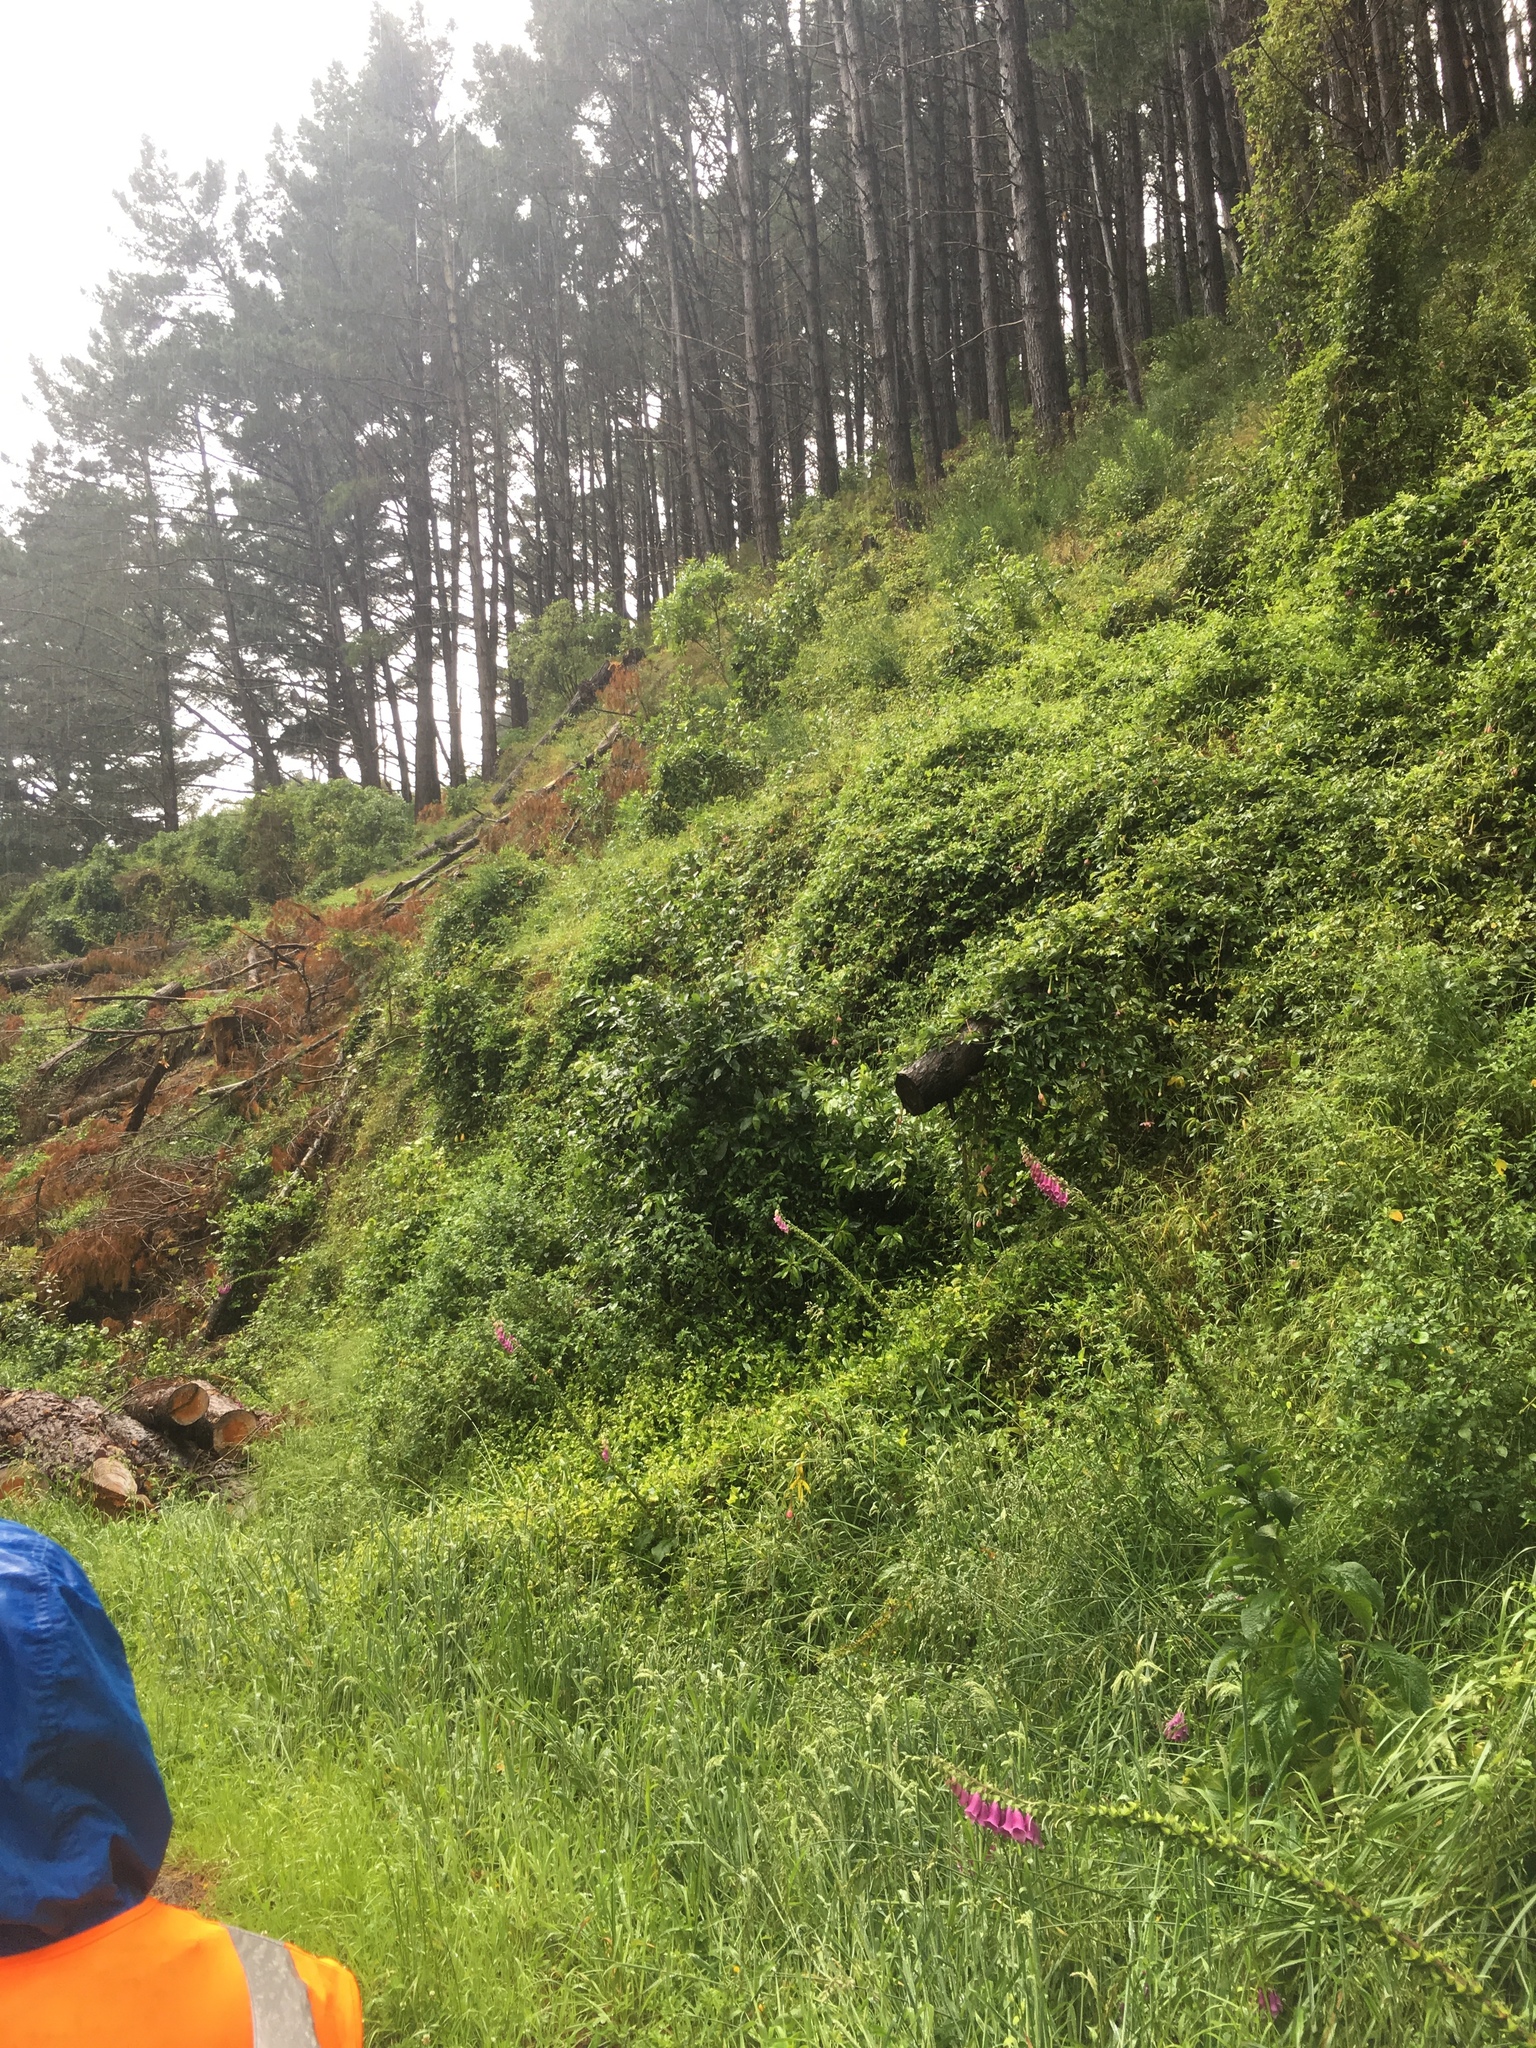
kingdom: Plantae
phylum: Tracheophyta
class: Magnoliopsida
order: Malpighiales
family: Passifloraceae
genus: Passiflora
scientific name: Passiflora tripartita
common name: Banana poka
